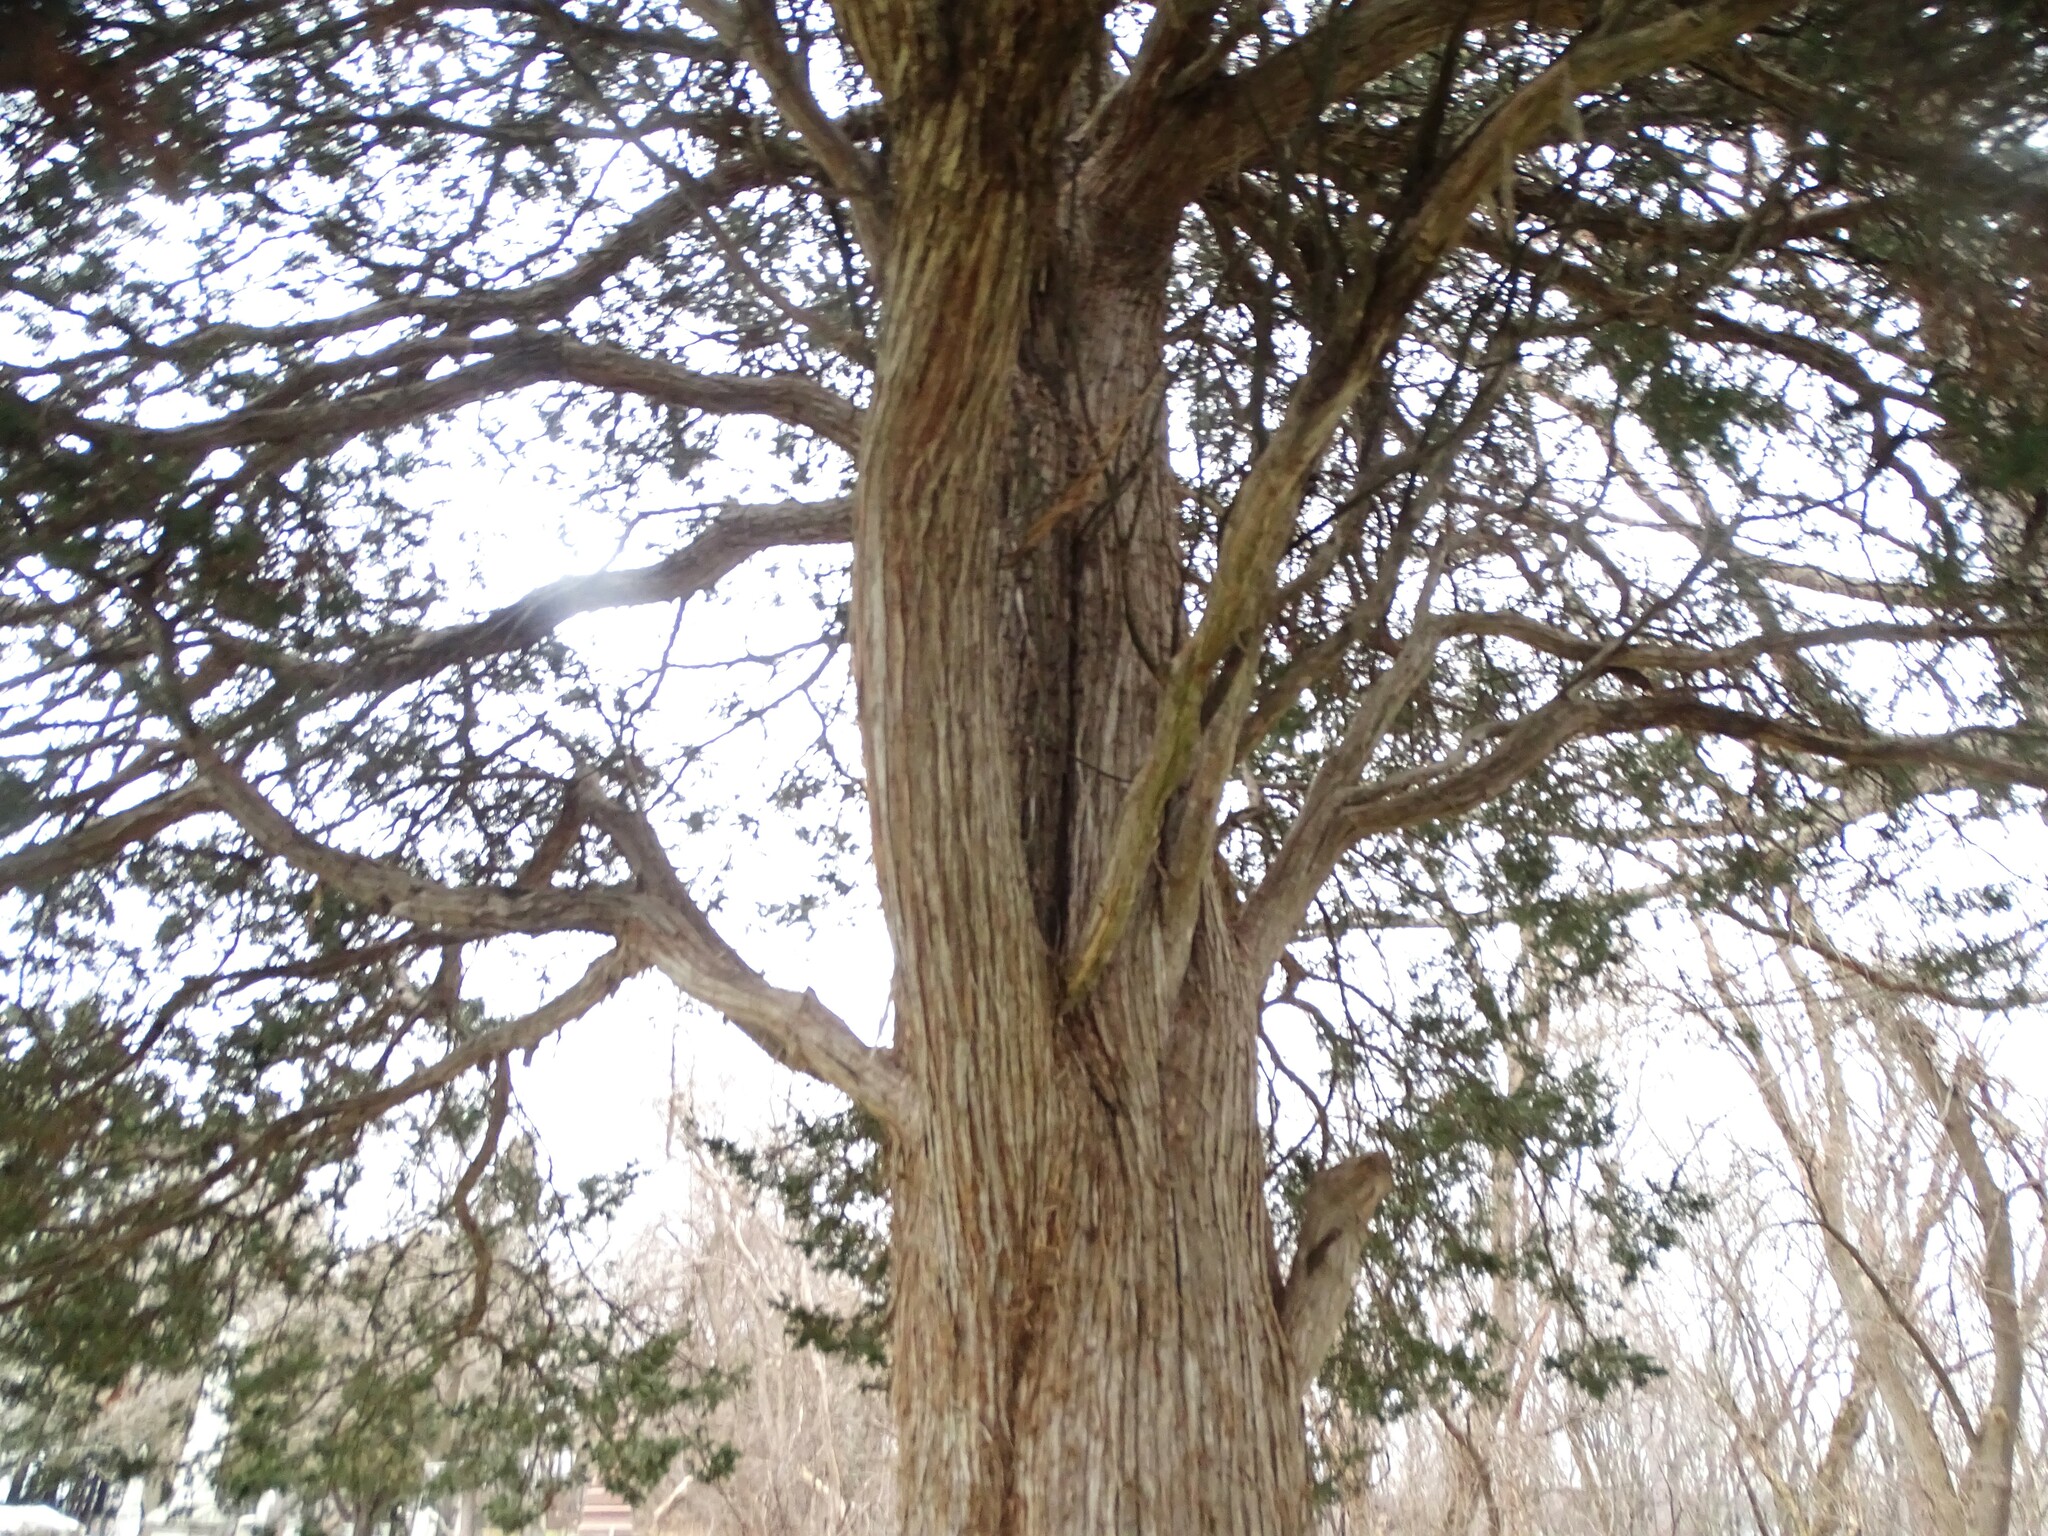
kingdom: Plantae
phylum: Tracheophyta
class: Pinopsida
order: Pinales
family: Cupressaceae
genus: Juniperus
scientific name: Juniperus virginiana
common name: Red juniper
